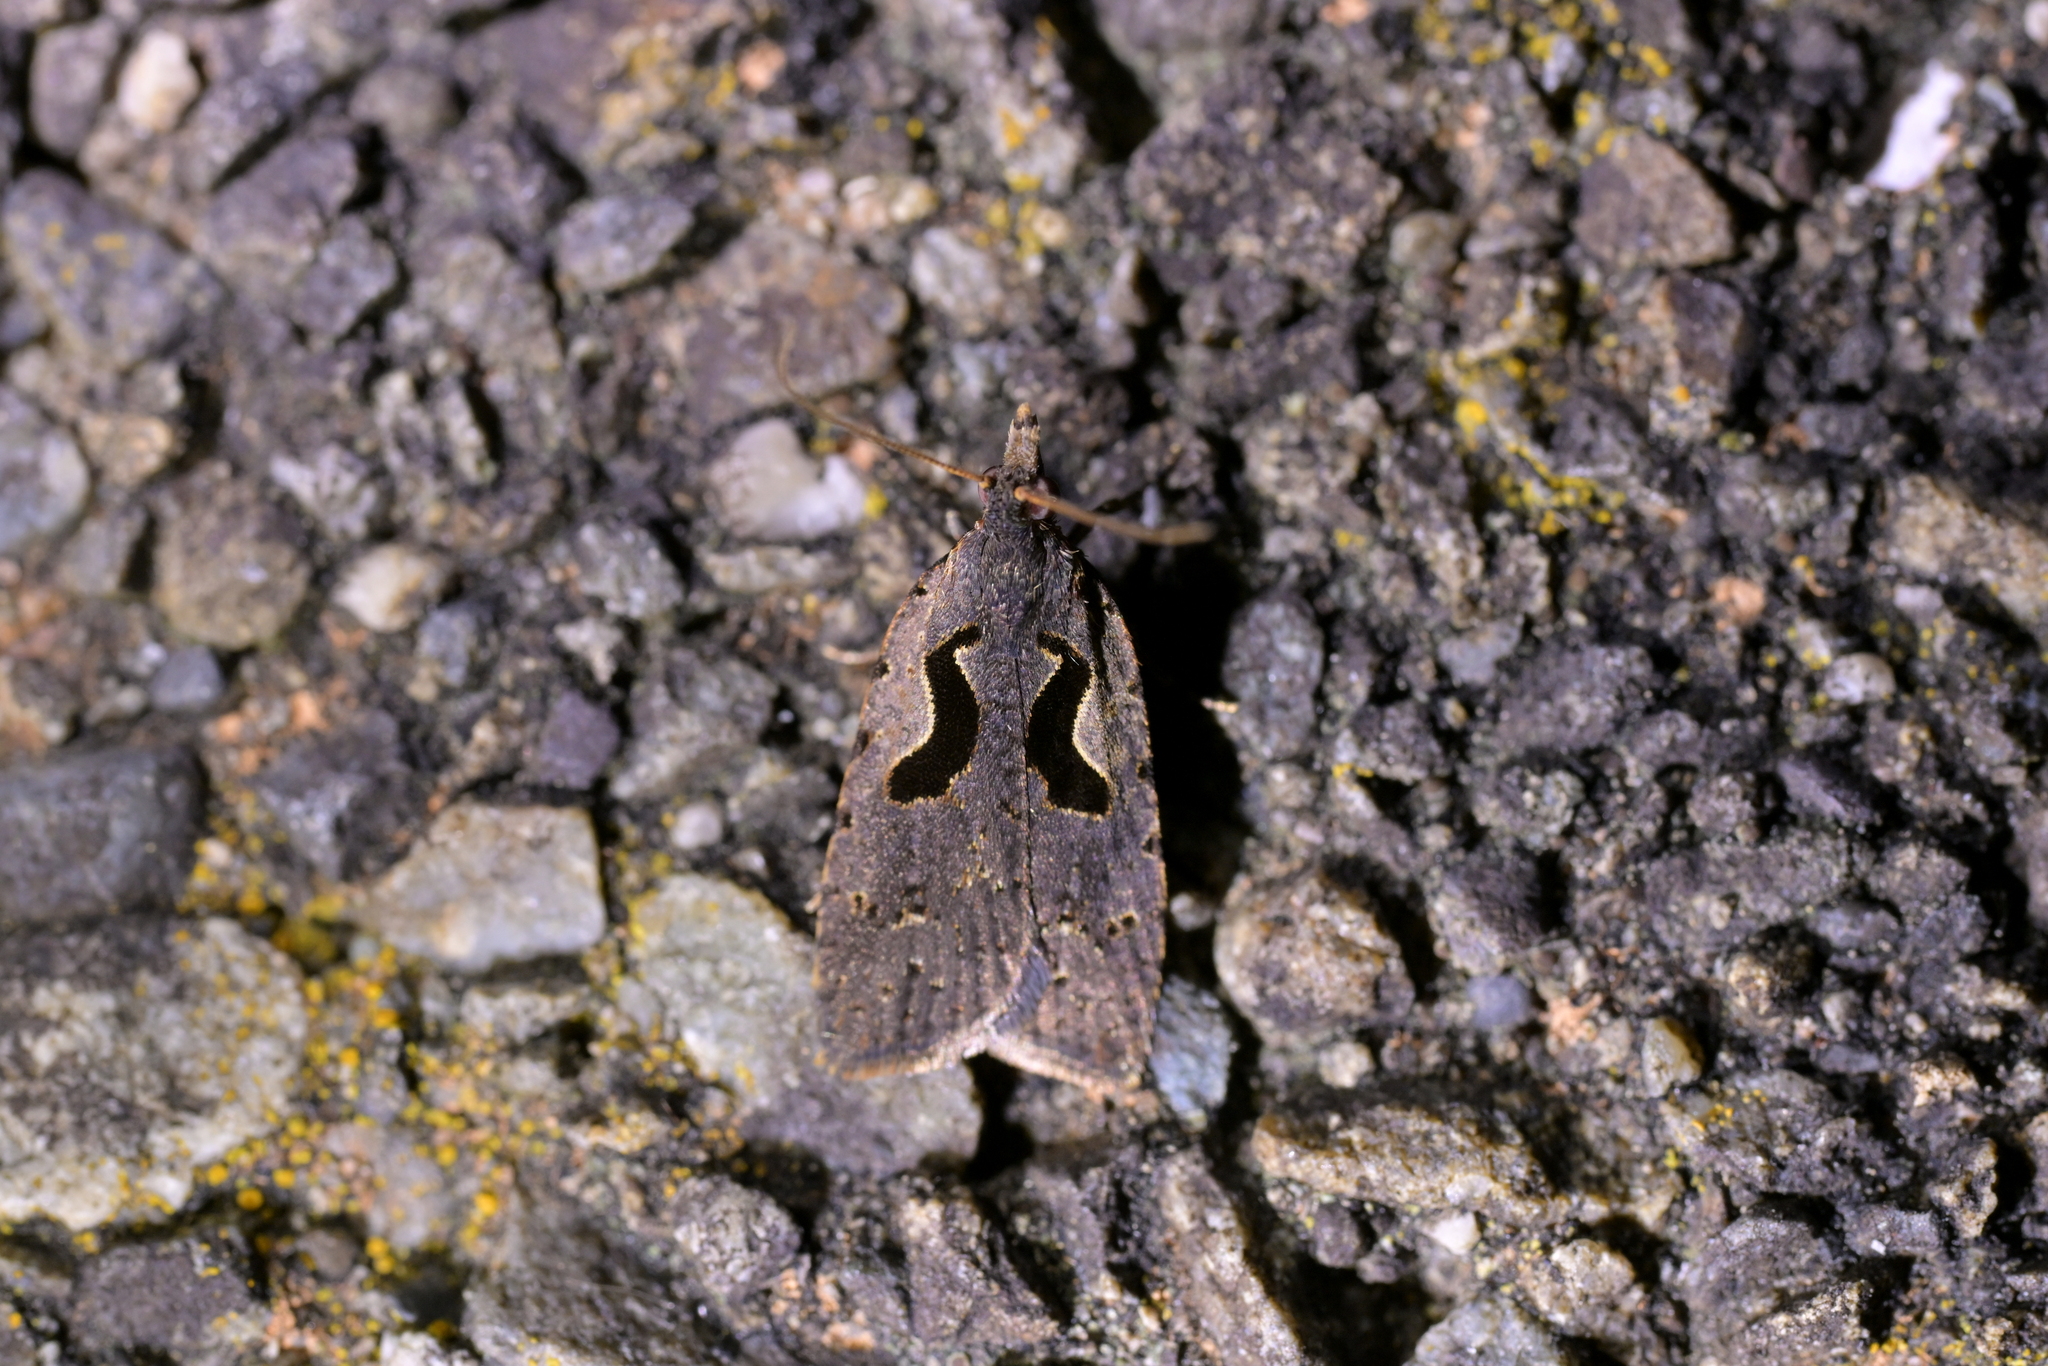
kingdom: Animalia
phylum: Arthropoda
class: Insecta
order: Lepidoptera
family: Tortricidae
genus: Cnephasia
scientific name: Cnephasia jactatana
